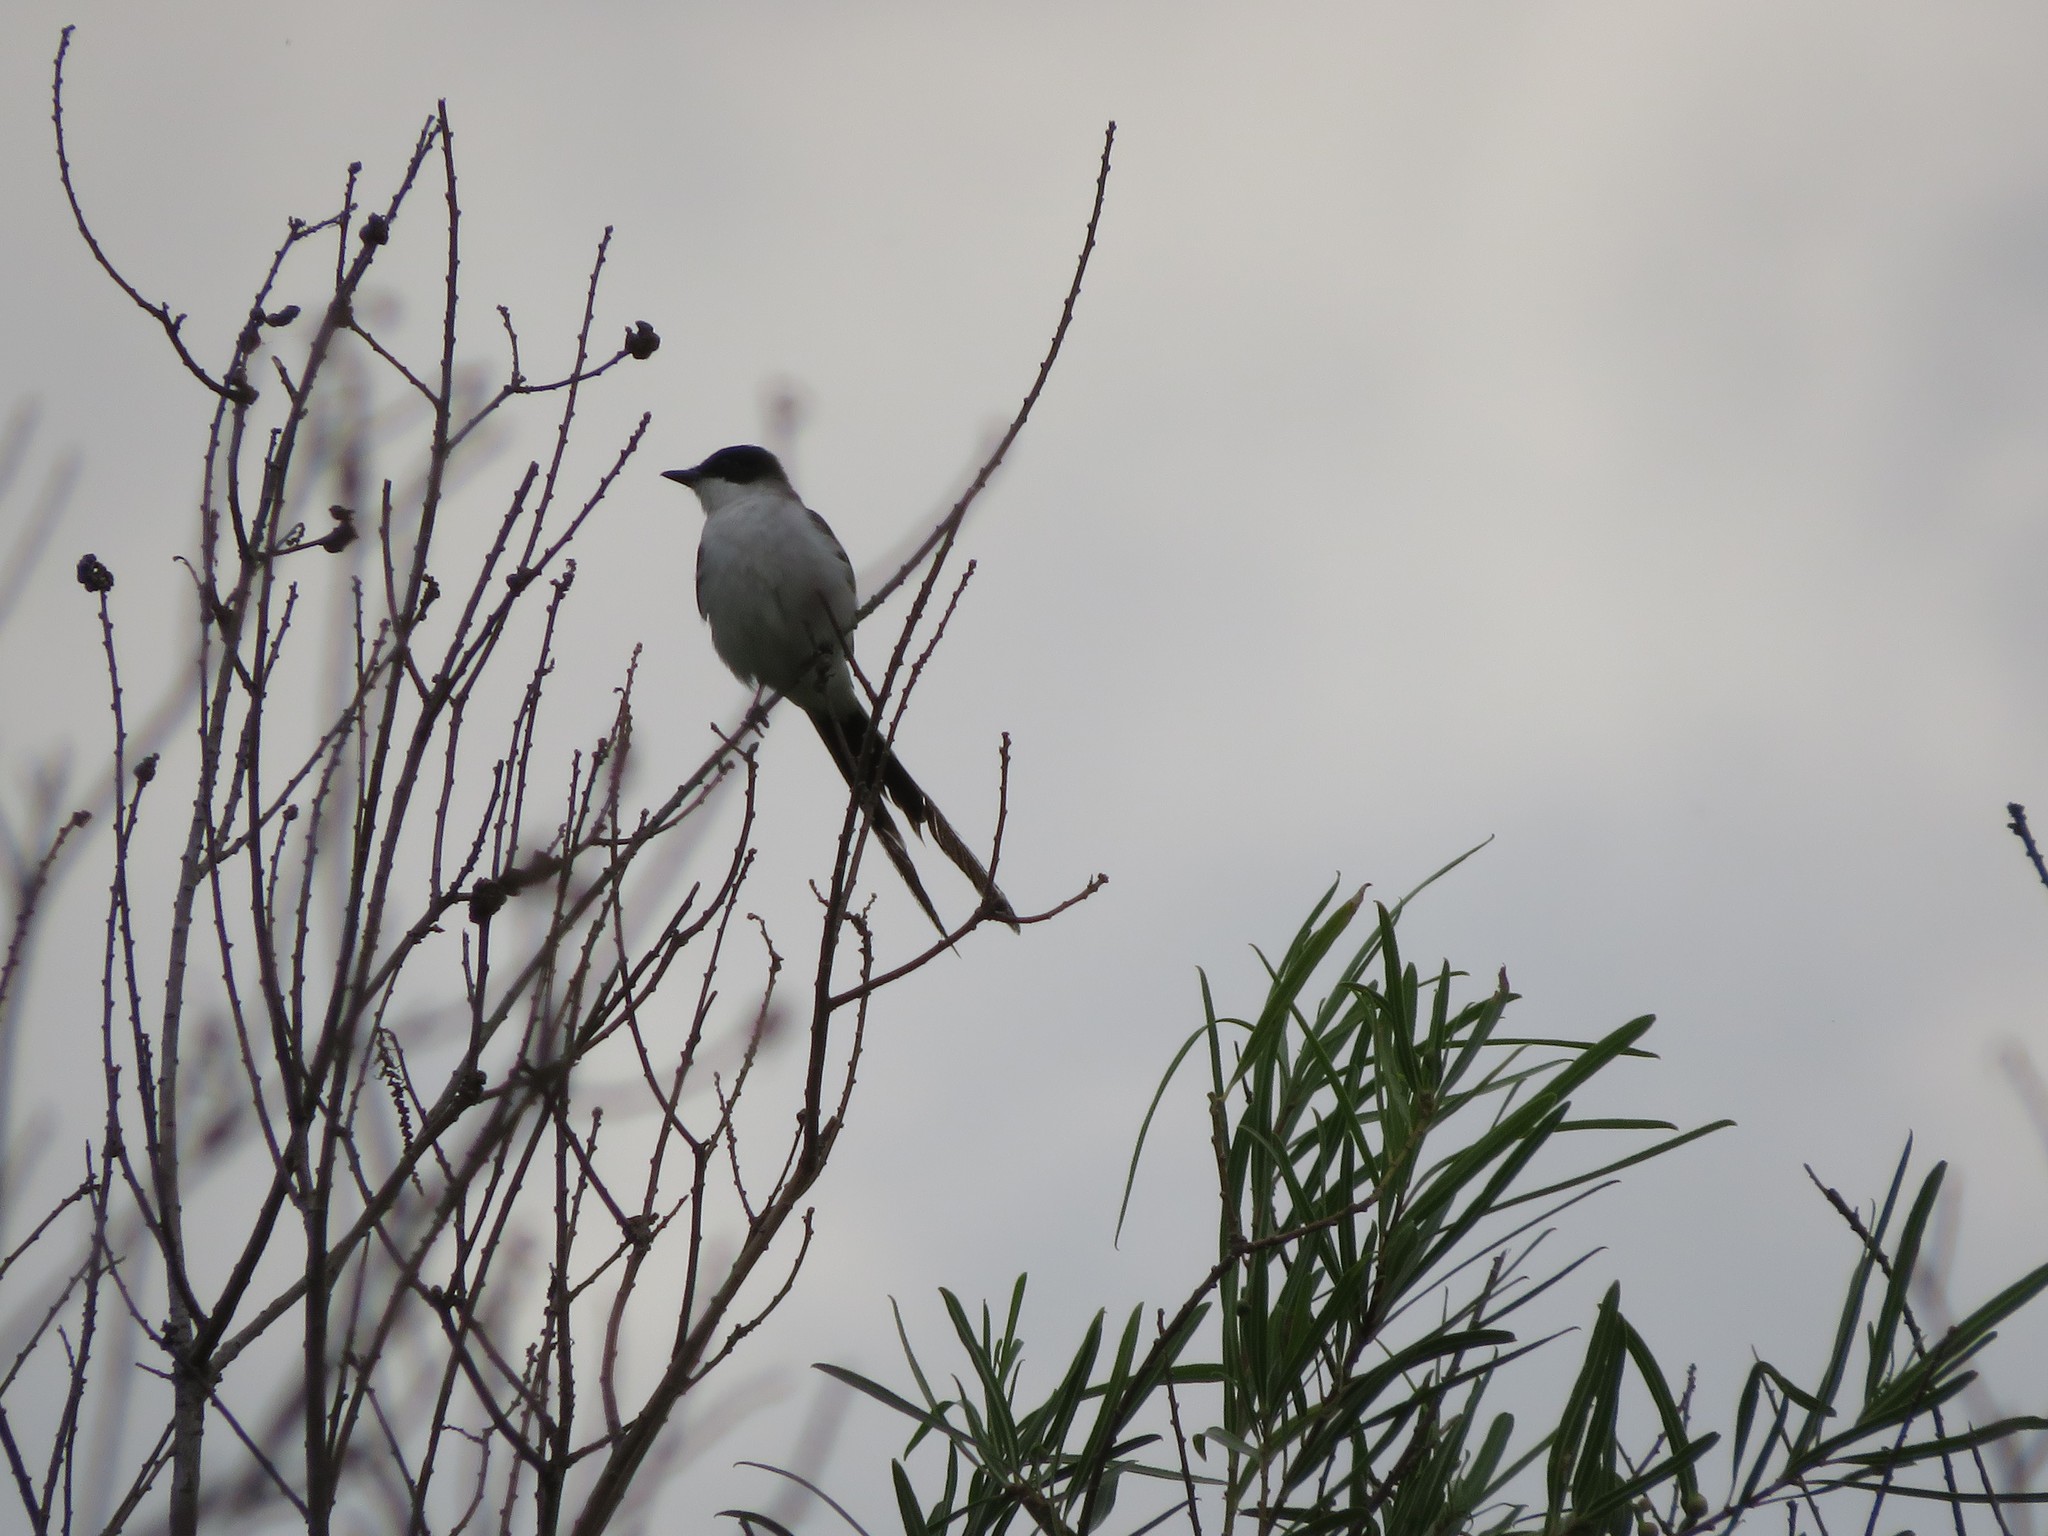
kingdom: Animalia
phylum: Chordata
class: Aves
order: Passeriformes
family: Tyrannidae
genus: Tyrannus
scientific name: Tyrannus savana
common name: Fork-tailed flycatcher
